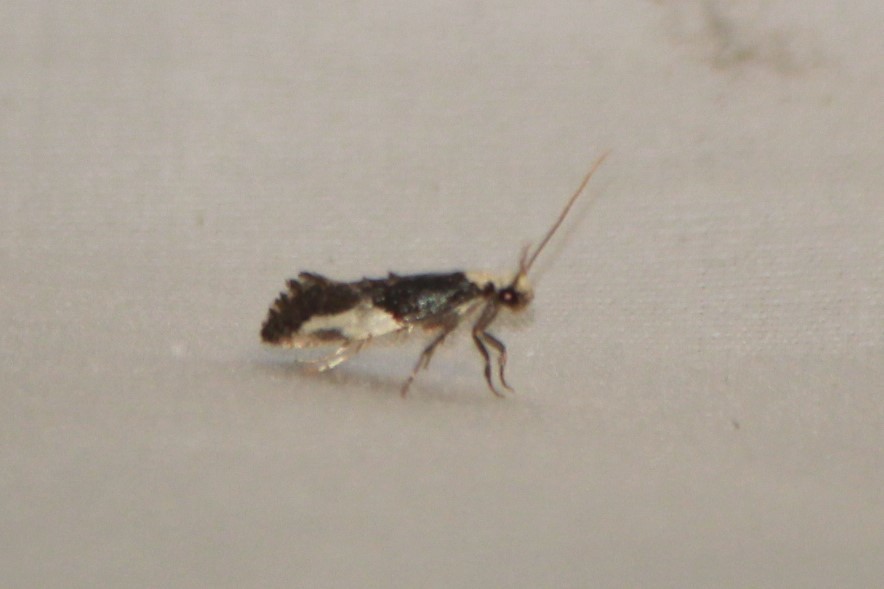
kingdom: Animalia
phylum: Arthropoda
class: Insecta
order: Lepidoptera
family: Tineidae
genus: Monopis
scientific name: Monopis longella
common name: Pavlovski's monopis moth
